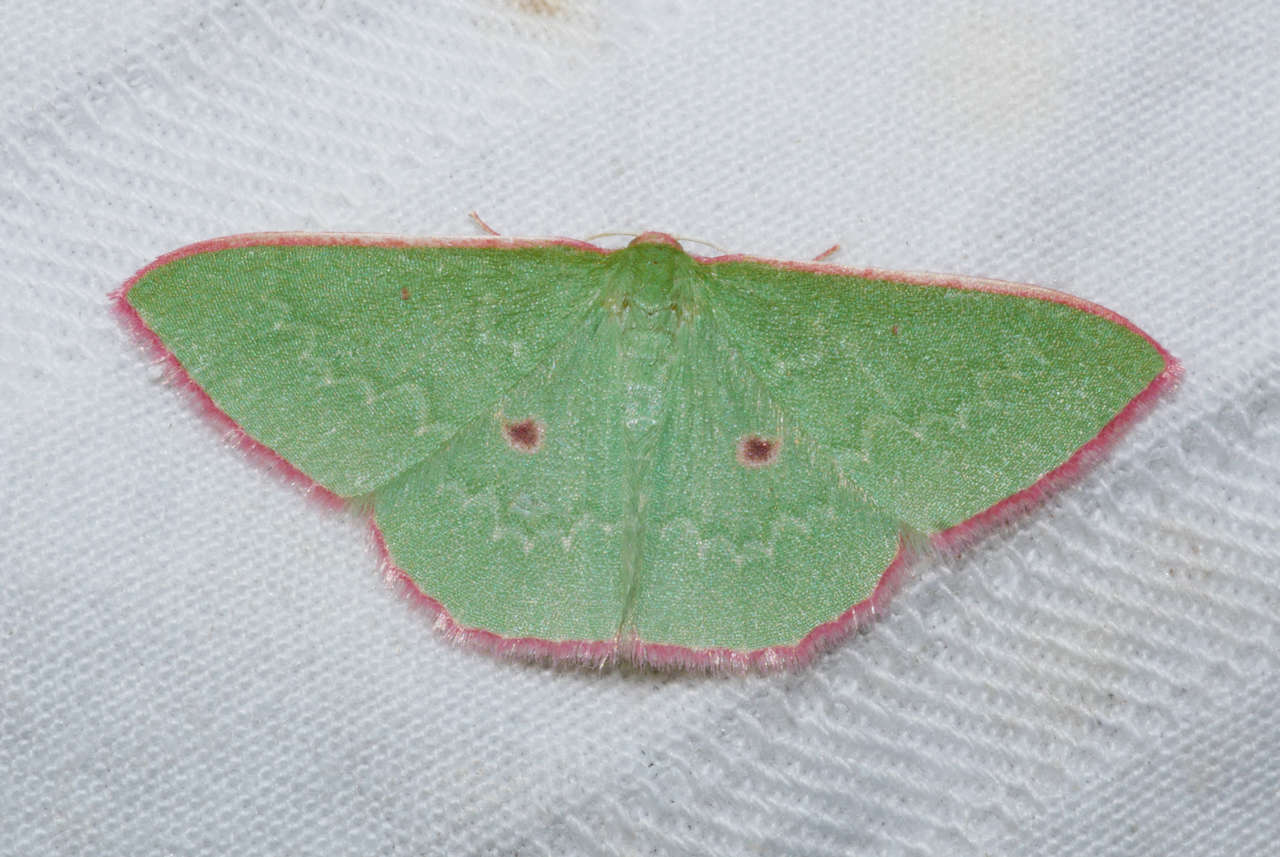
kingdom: Animalia
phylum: Arthropoda
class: Insecta
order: Lepidoptera
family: Geometridae
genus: Chlorocoma
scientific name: Chlorocoma cadmaria
